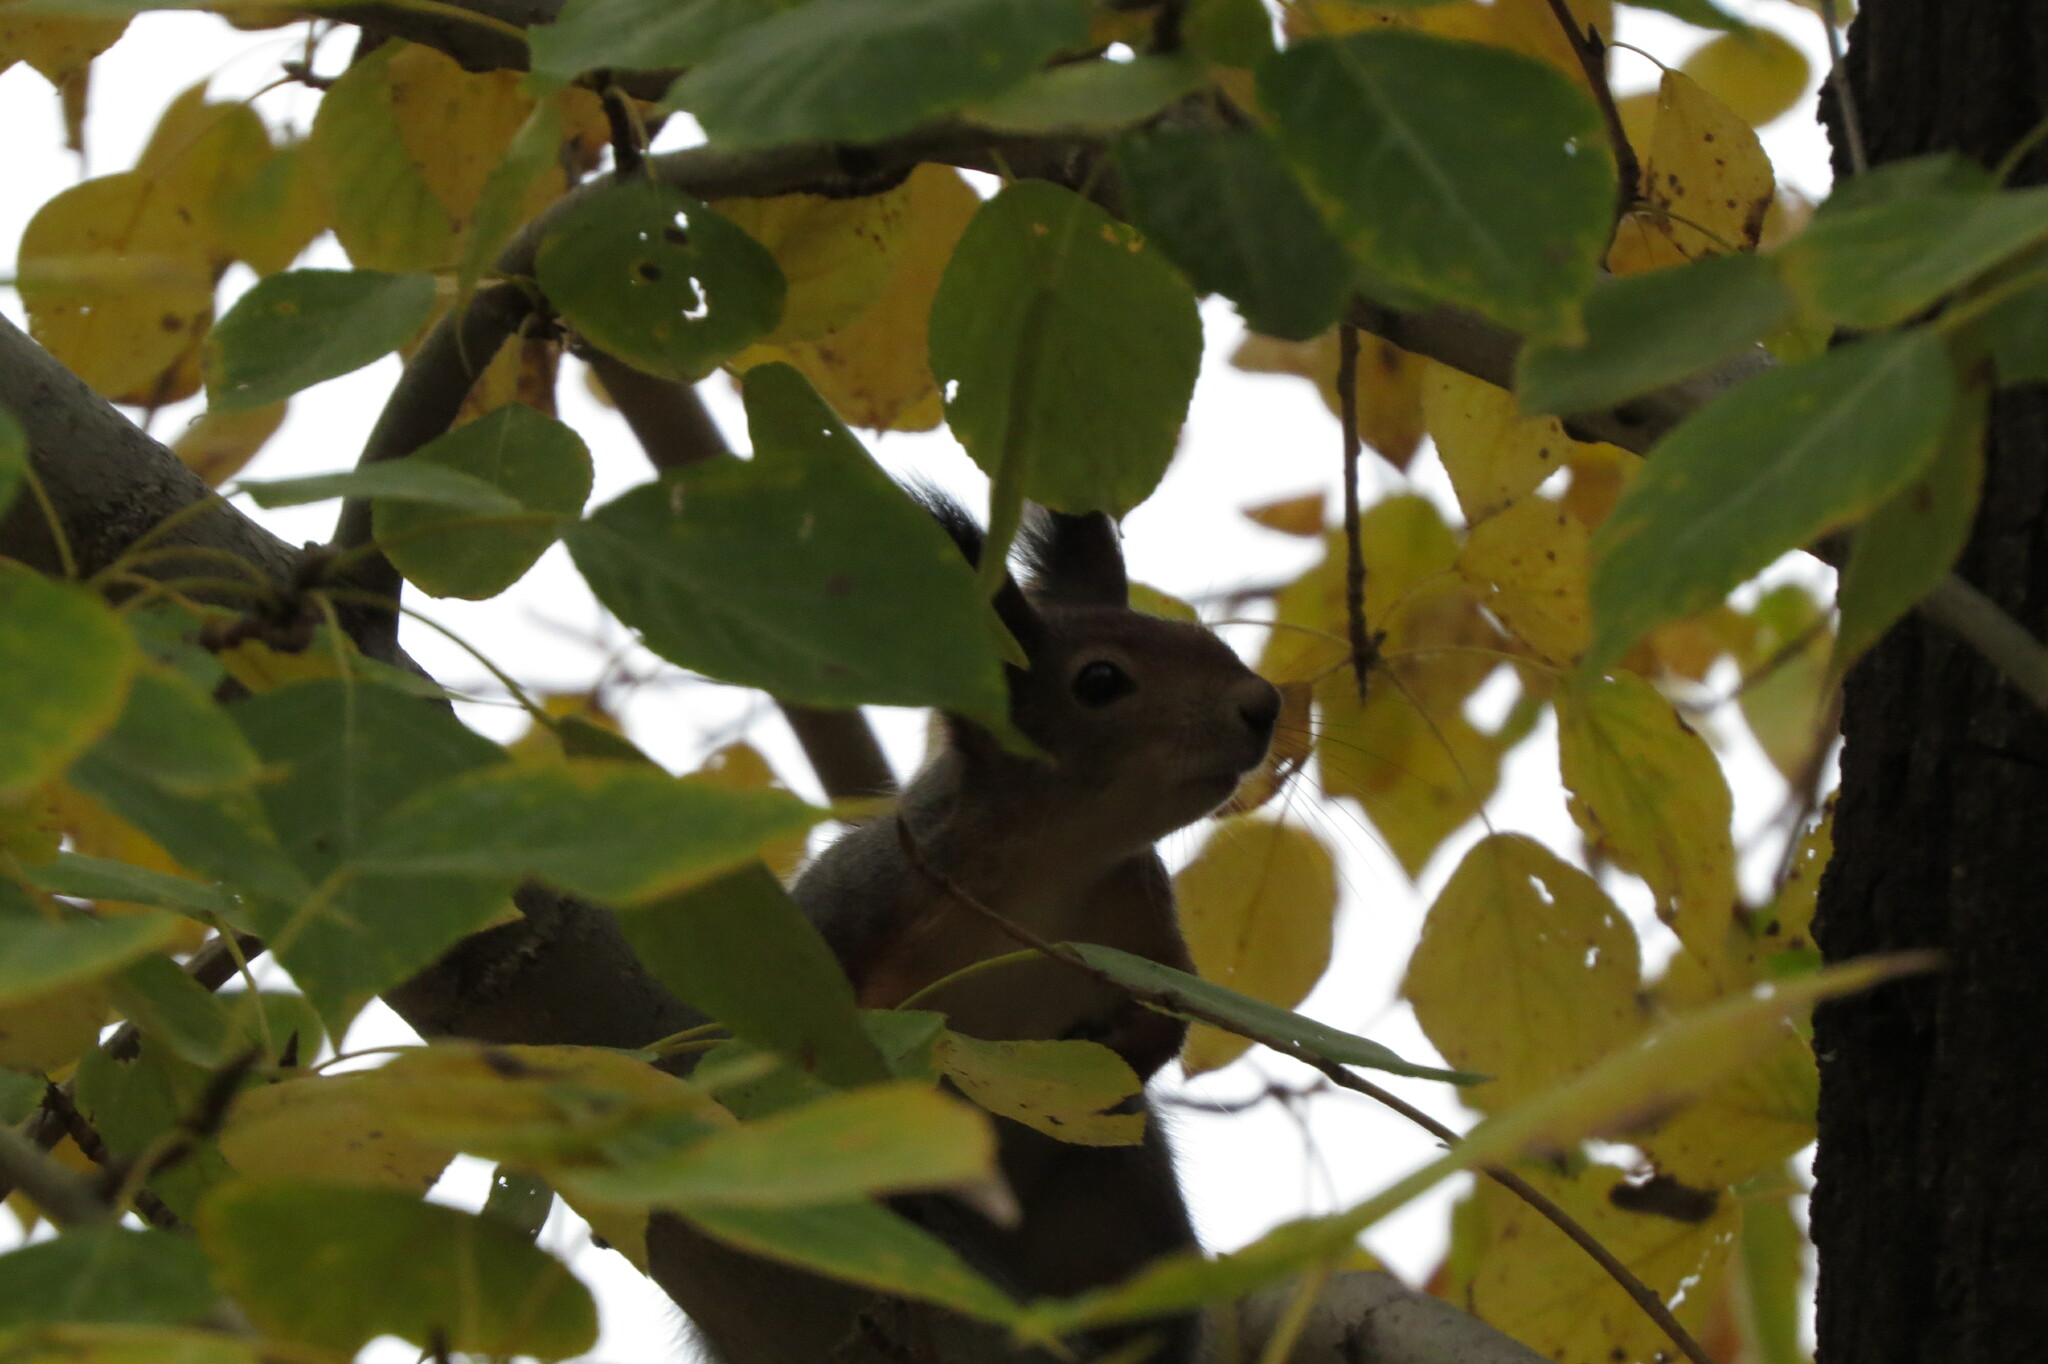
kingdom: Animalia
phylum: Chordata
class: Mammalia
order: Rodentia
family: Sciuridae
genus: Sciurus
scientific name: Sciurus vulgaris
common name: Eurasian red squirrel
